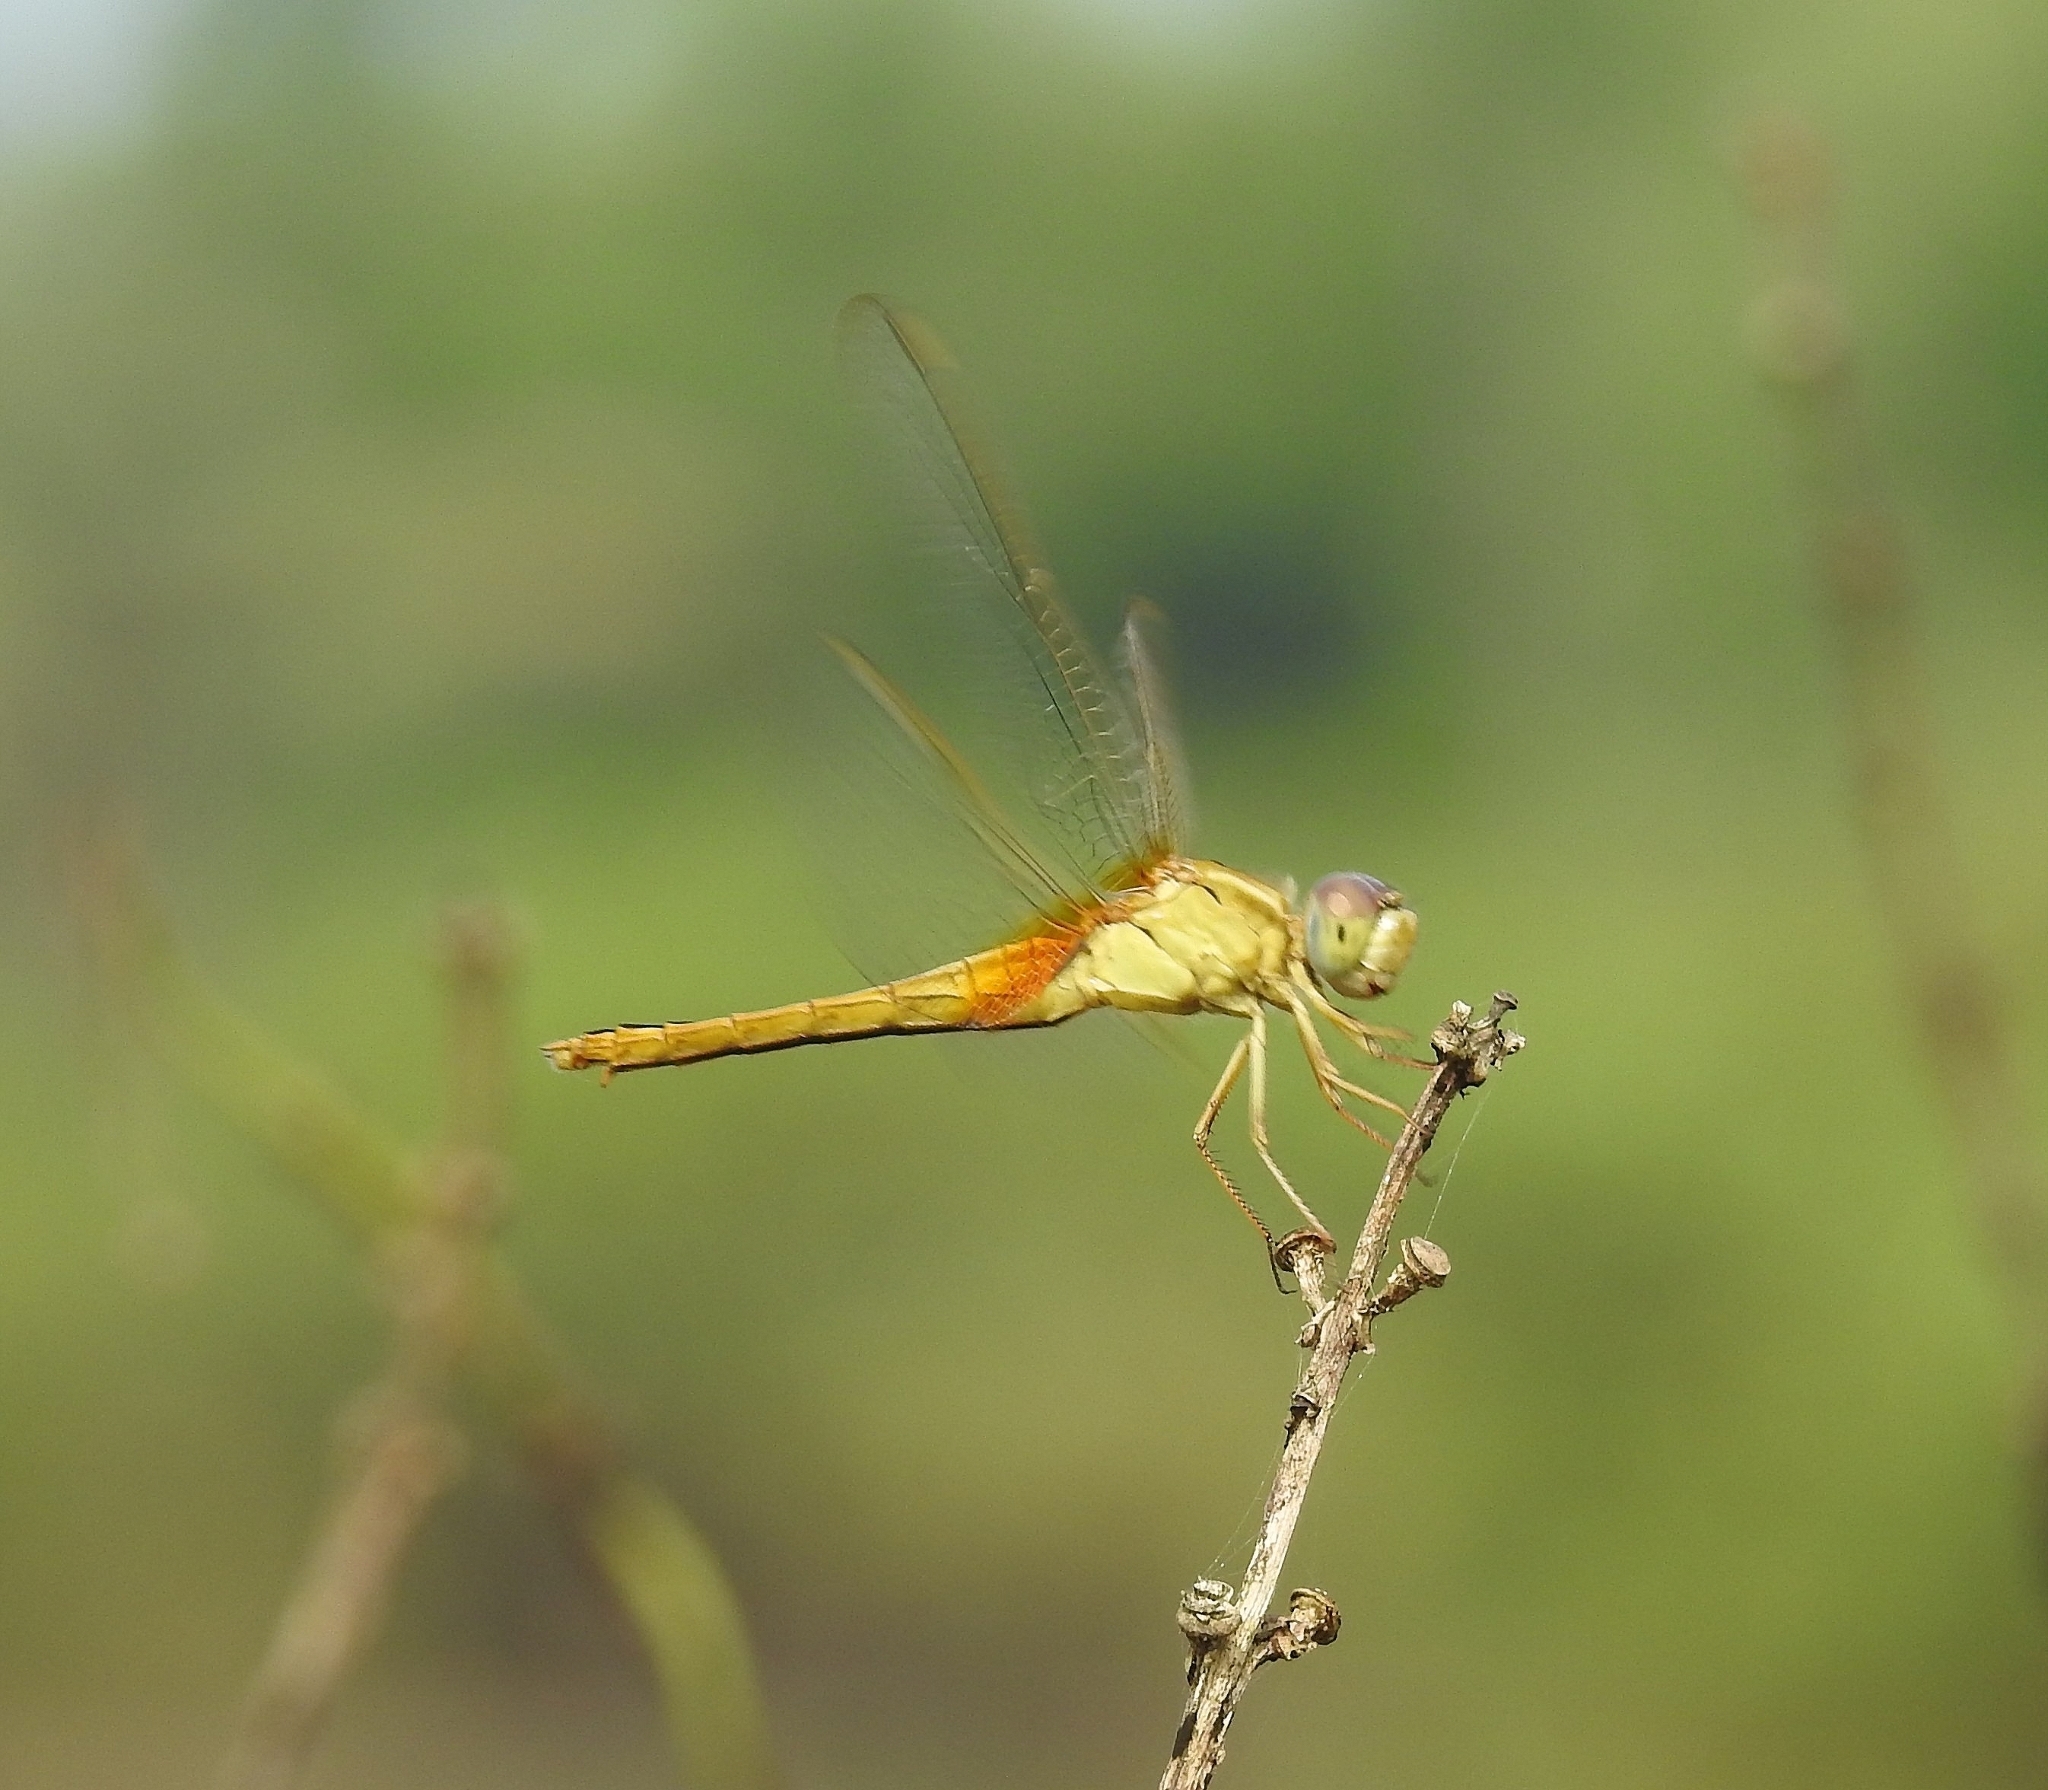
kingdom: Animalia
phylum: Arthropoda
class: Insecta
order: Odonata
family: Libellulidae
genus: Crocothemis
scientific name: Crocothemis servilia
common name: Scarlet skimmer
